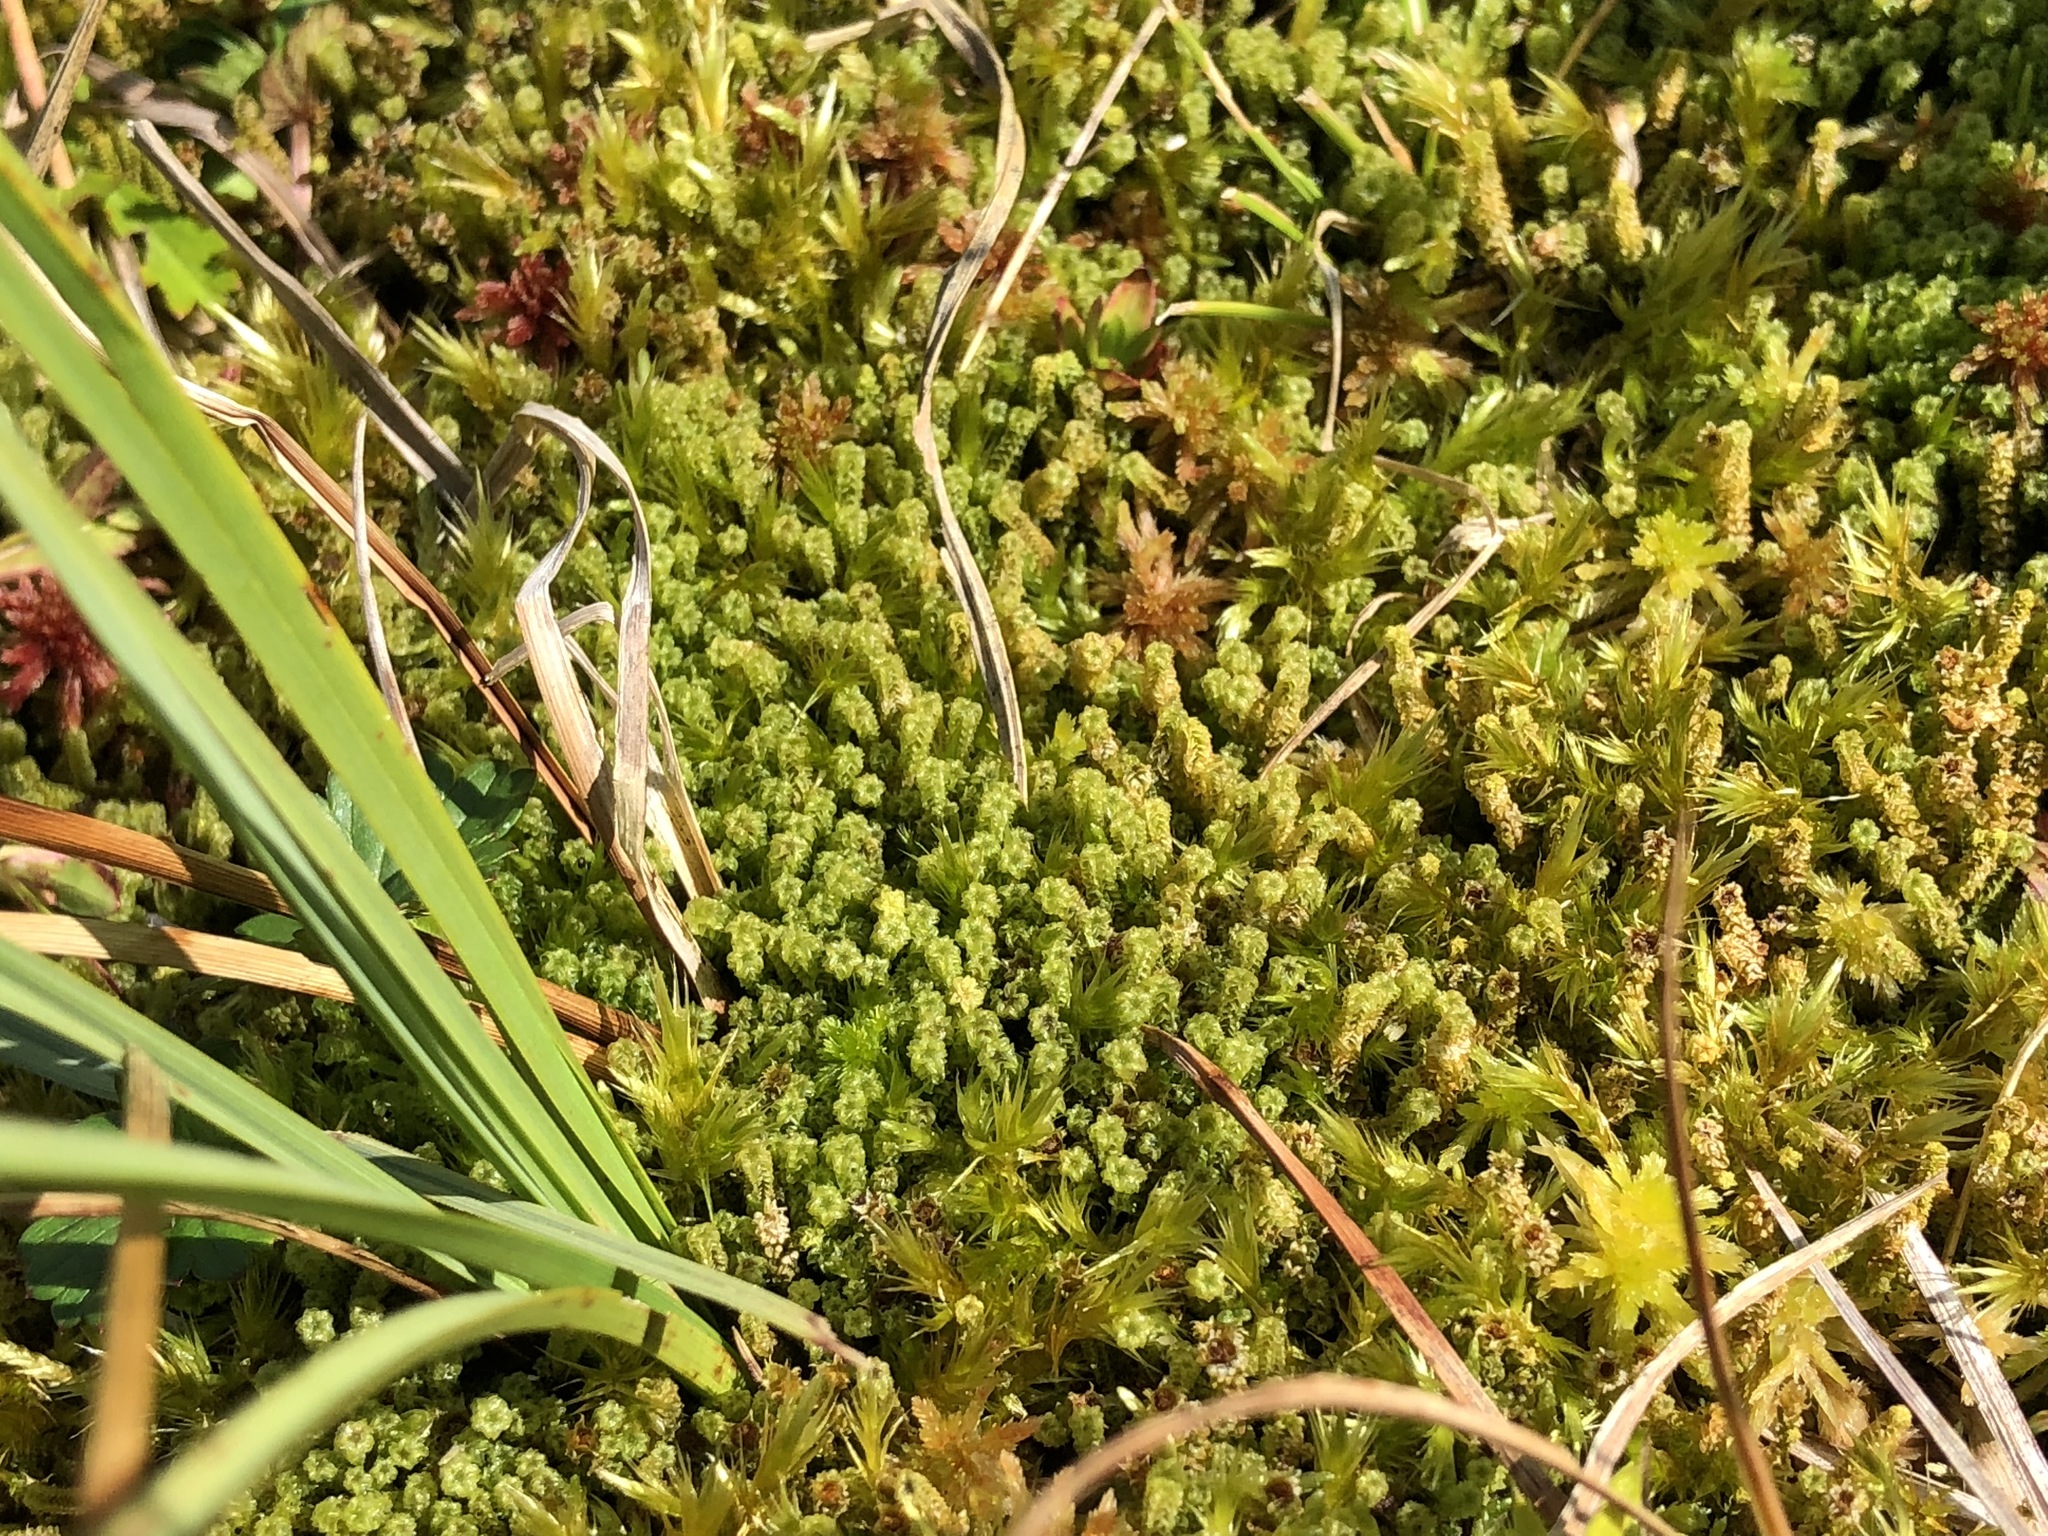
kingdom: Plantae
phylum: Bryophyta
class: Bryopsida
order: Splachnales
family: Meesiaceae
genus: Paludella
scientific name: Paludella squarrosa
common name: Tufted fen moss
